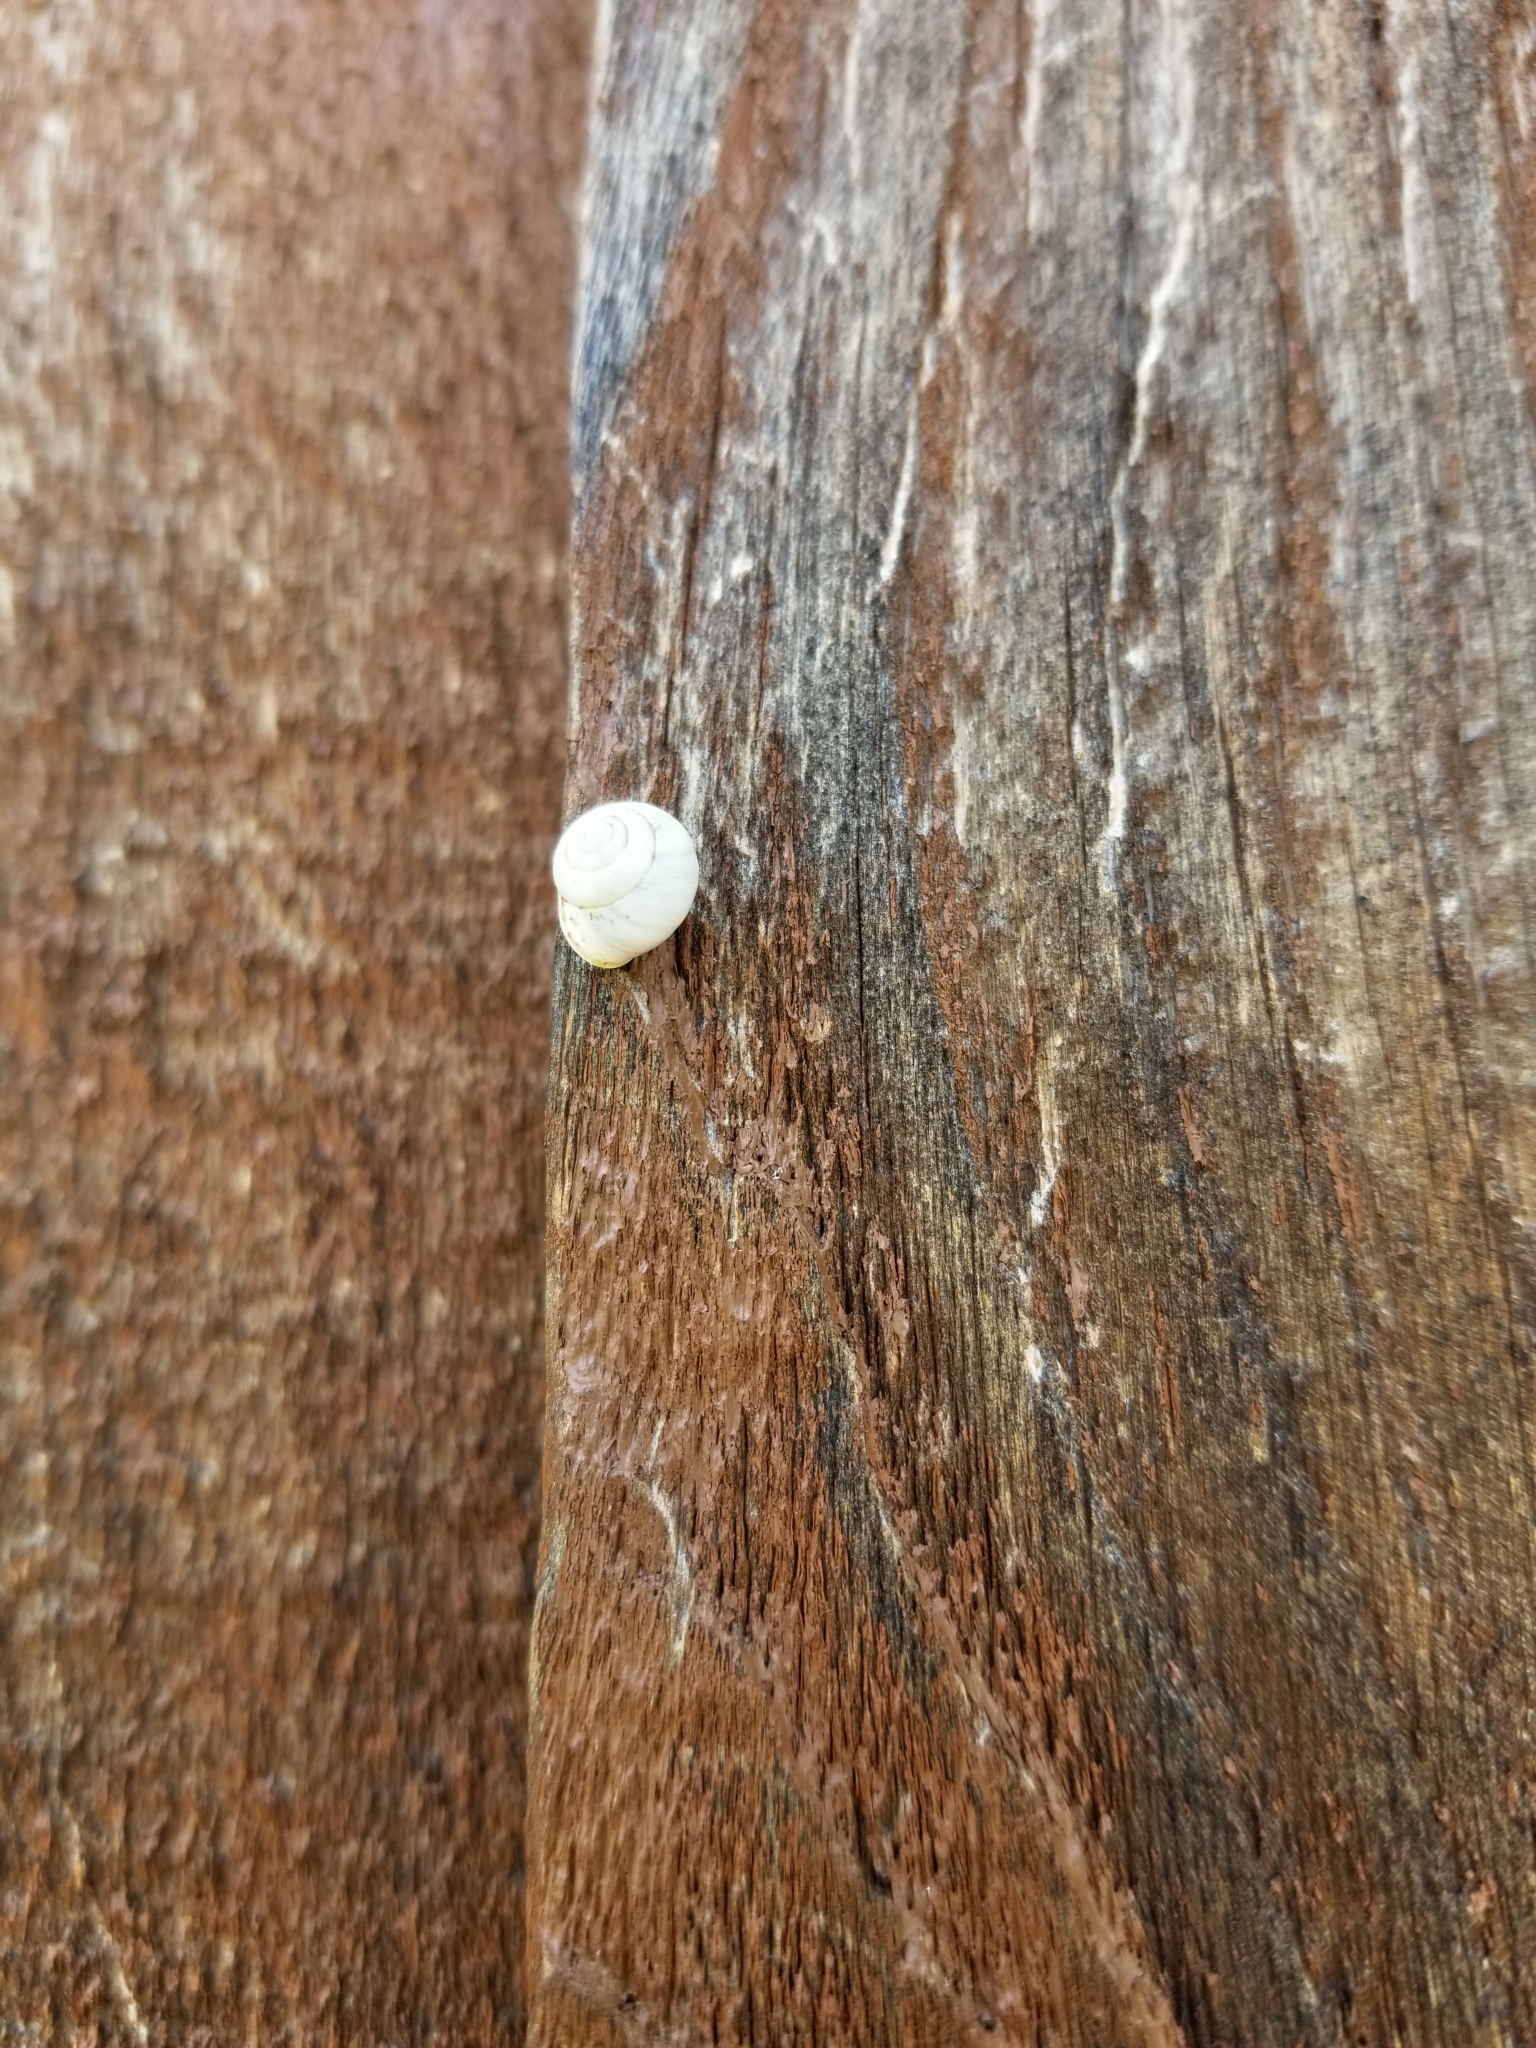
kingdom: Animalia
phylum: Mollusca
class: Gastropoda
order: Cycloneritida
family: Helicinidae
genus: Helicina
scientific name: Helicina orbiculata
